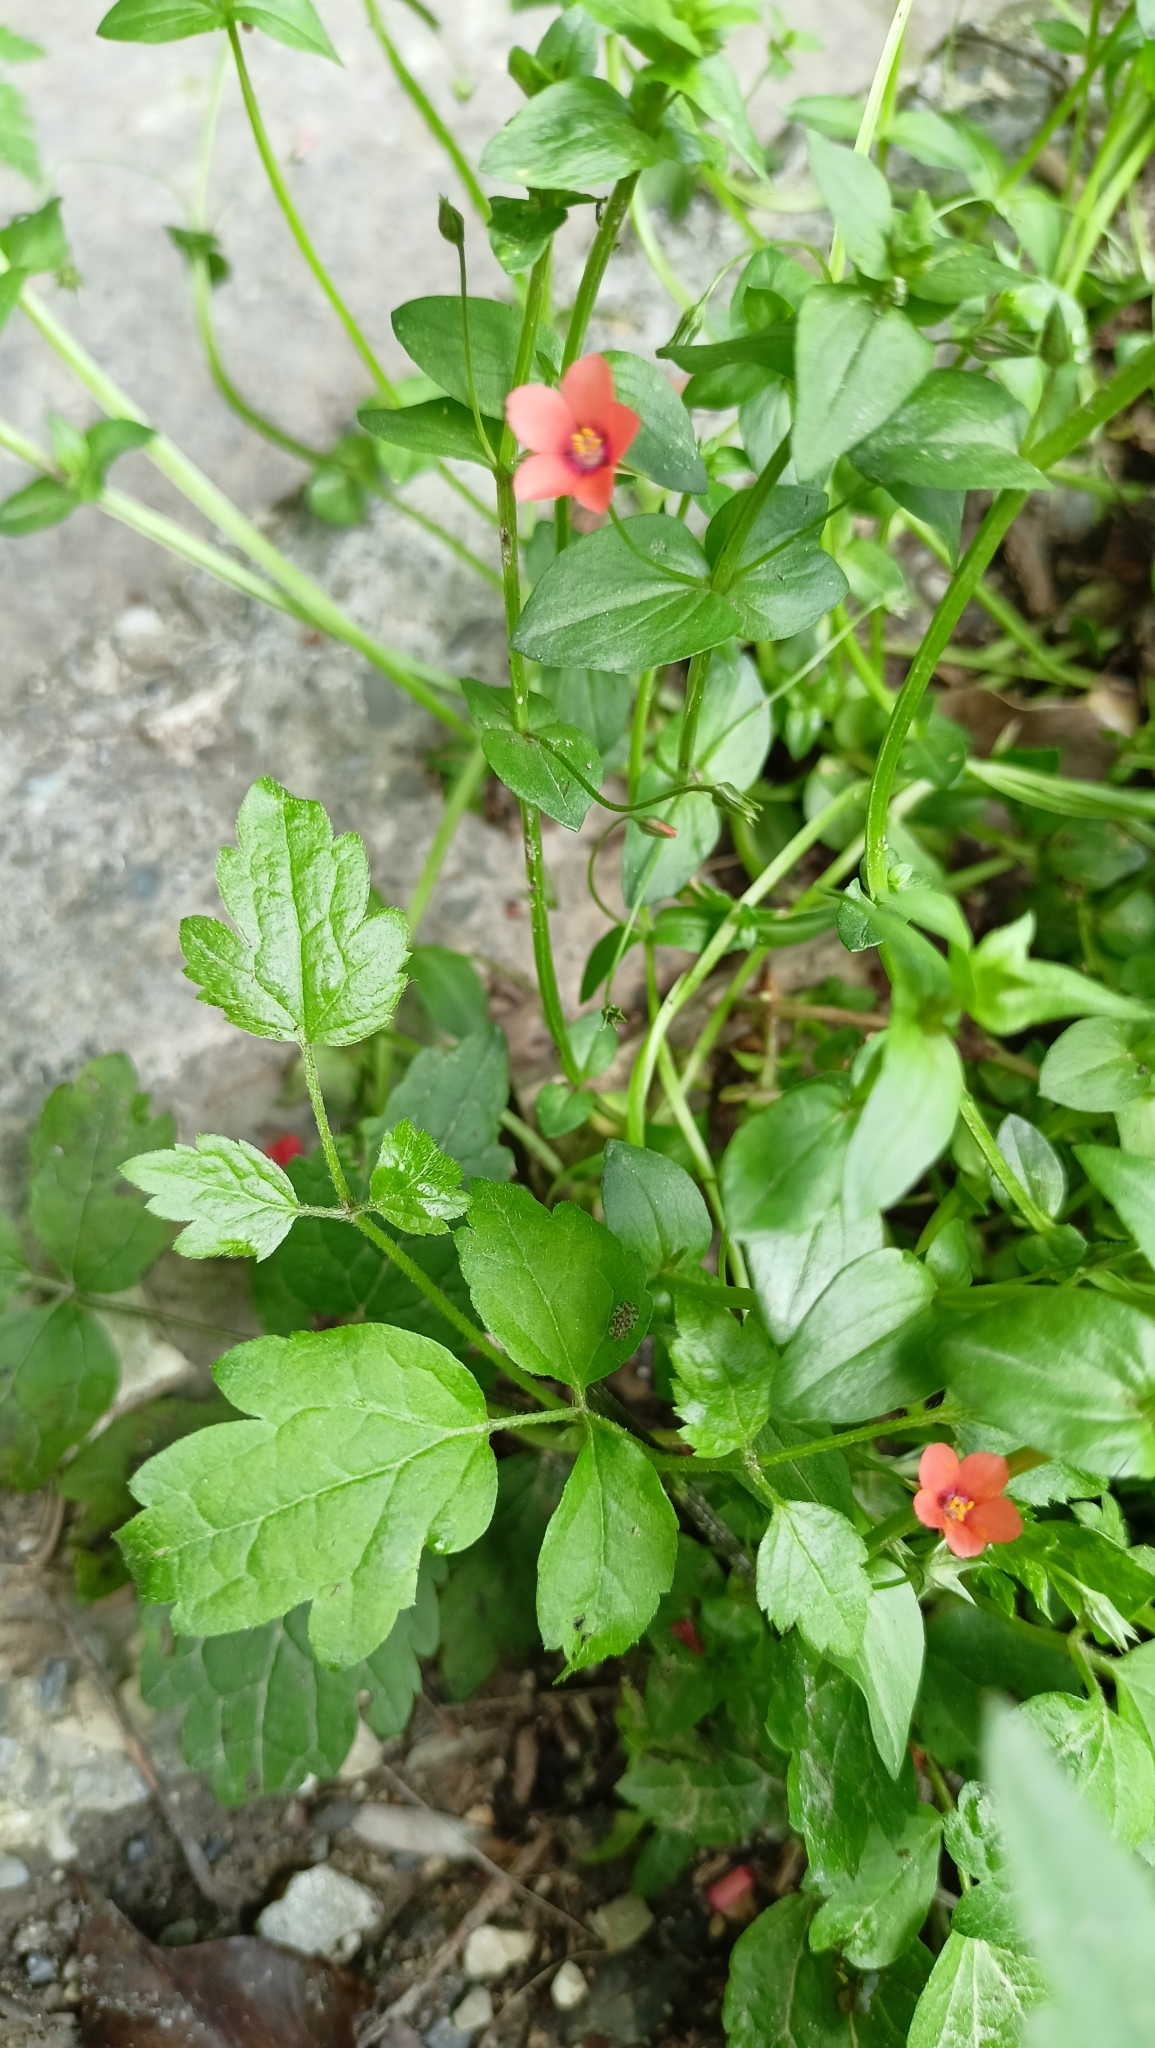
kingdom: Plantae
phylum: Tracheophyta
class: Magnoliopsida
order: Ericales
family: Primulaceae
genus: Lysimachia
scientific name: Lysimachia arvensis
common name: Scarlet pimpernel
